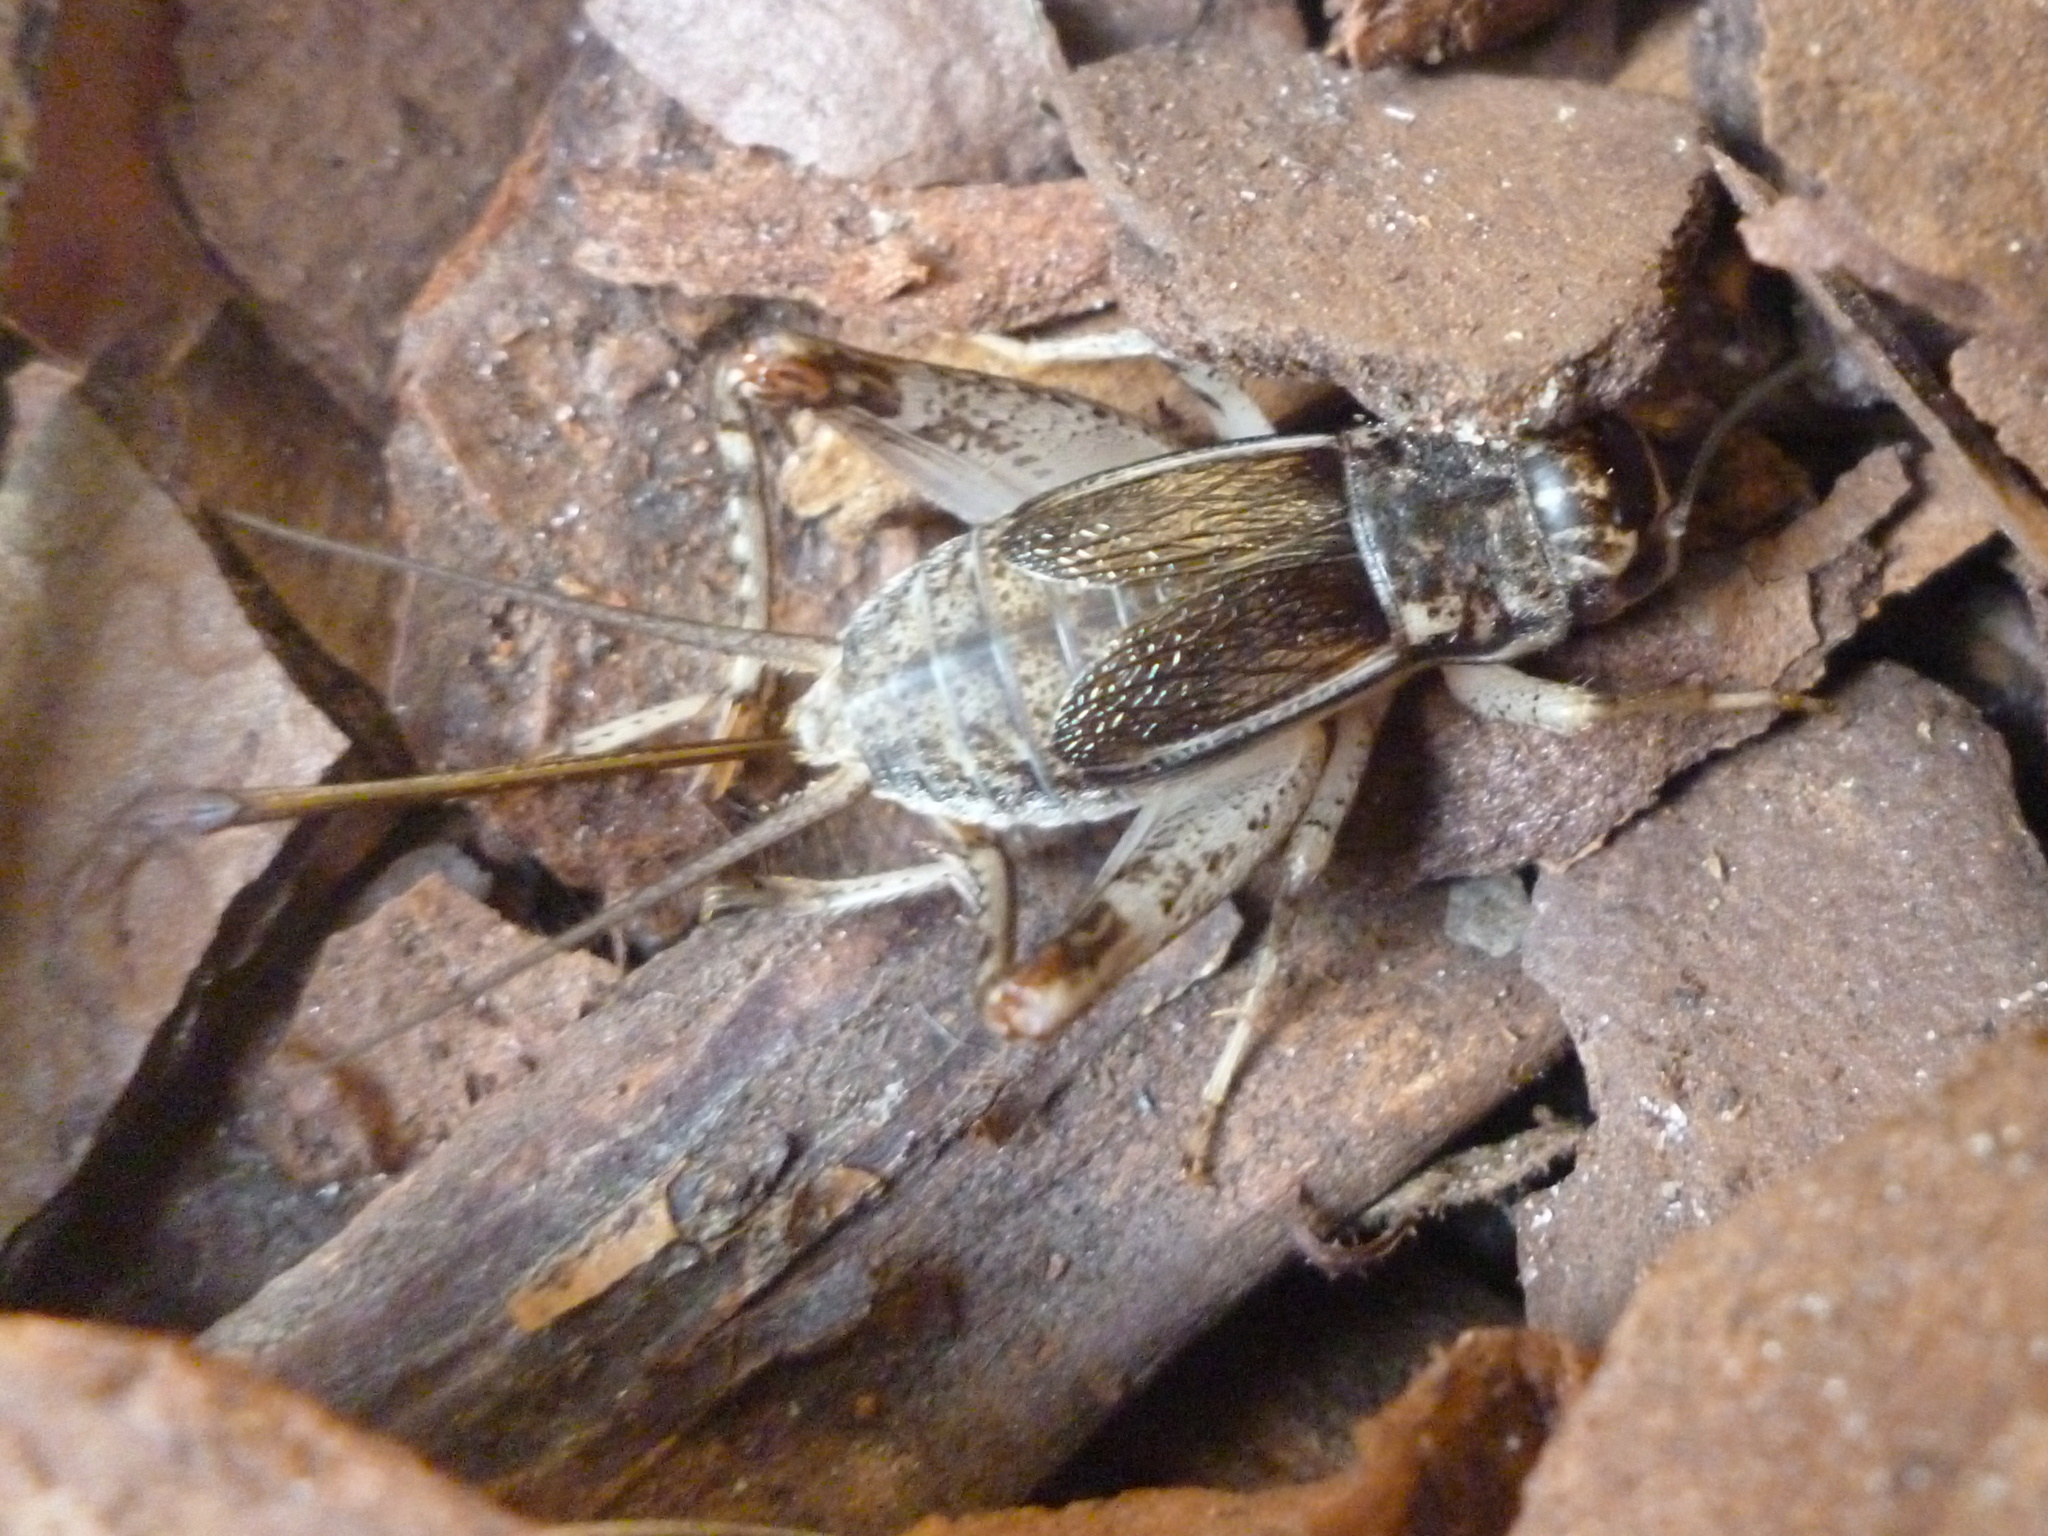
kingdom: Animalia
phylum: Arthropoda
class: Insecta
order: Orthoptera
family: Gryllidae
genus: Velarifictorus
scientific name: Velarifictorus micado
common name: Japanese burrowing cricket
